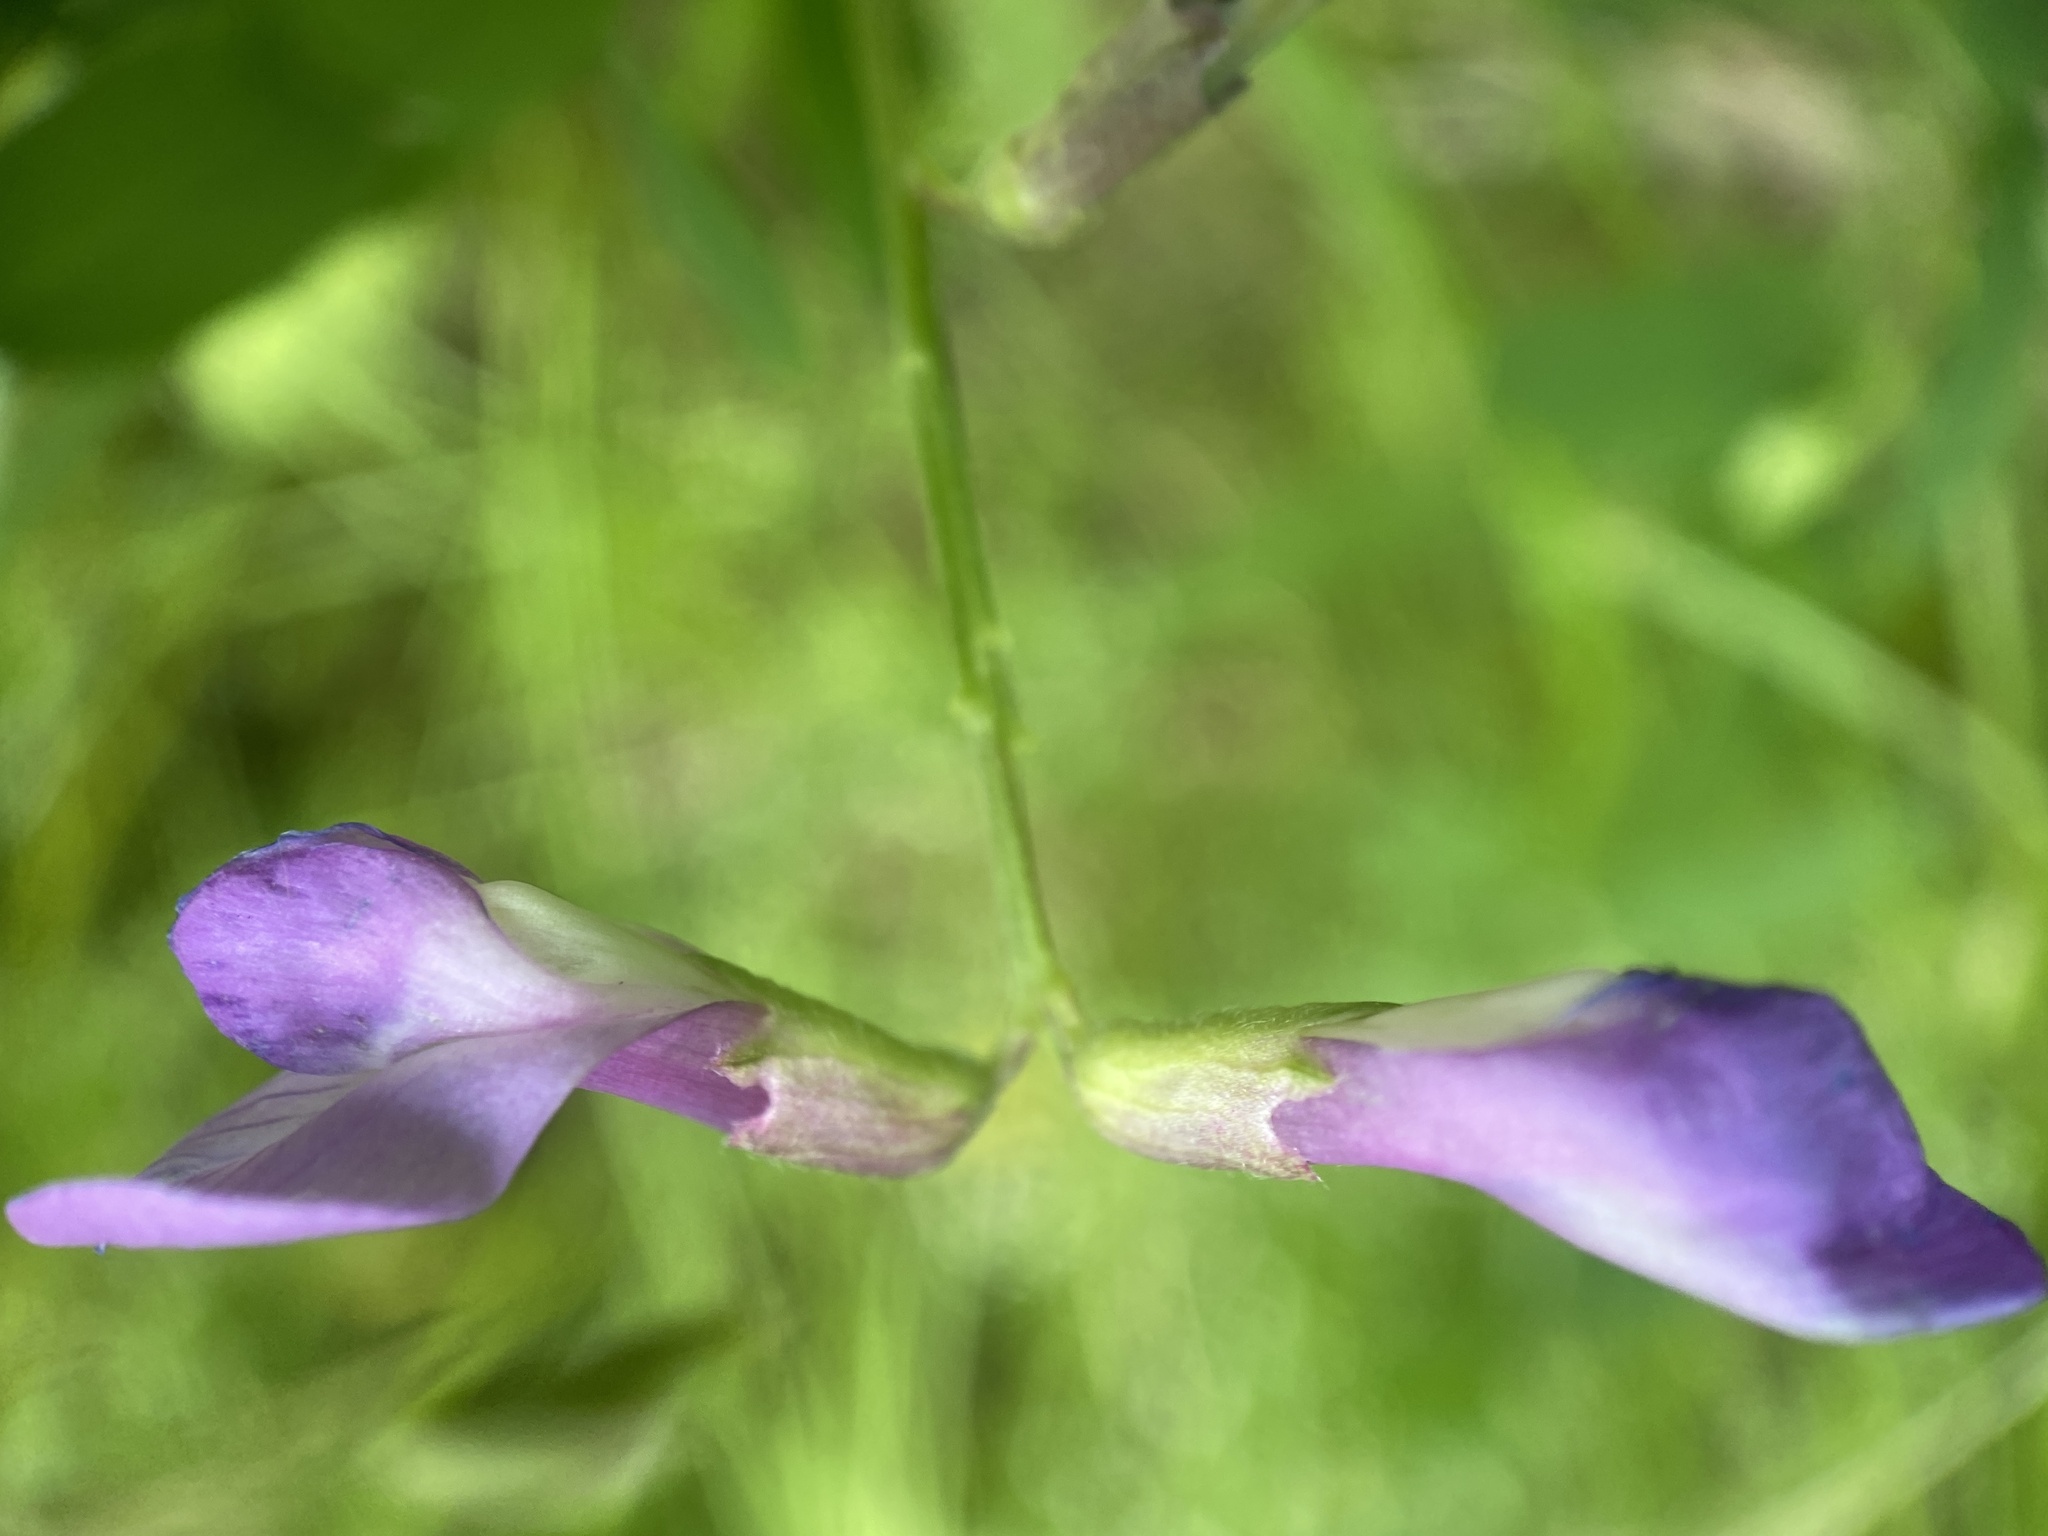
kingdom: Plantae
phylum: Tracheophyta
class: Magnoliopsida
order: Fabales
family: Fabaceae
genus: Vicia
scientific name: Vicia americana
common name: American vetch
